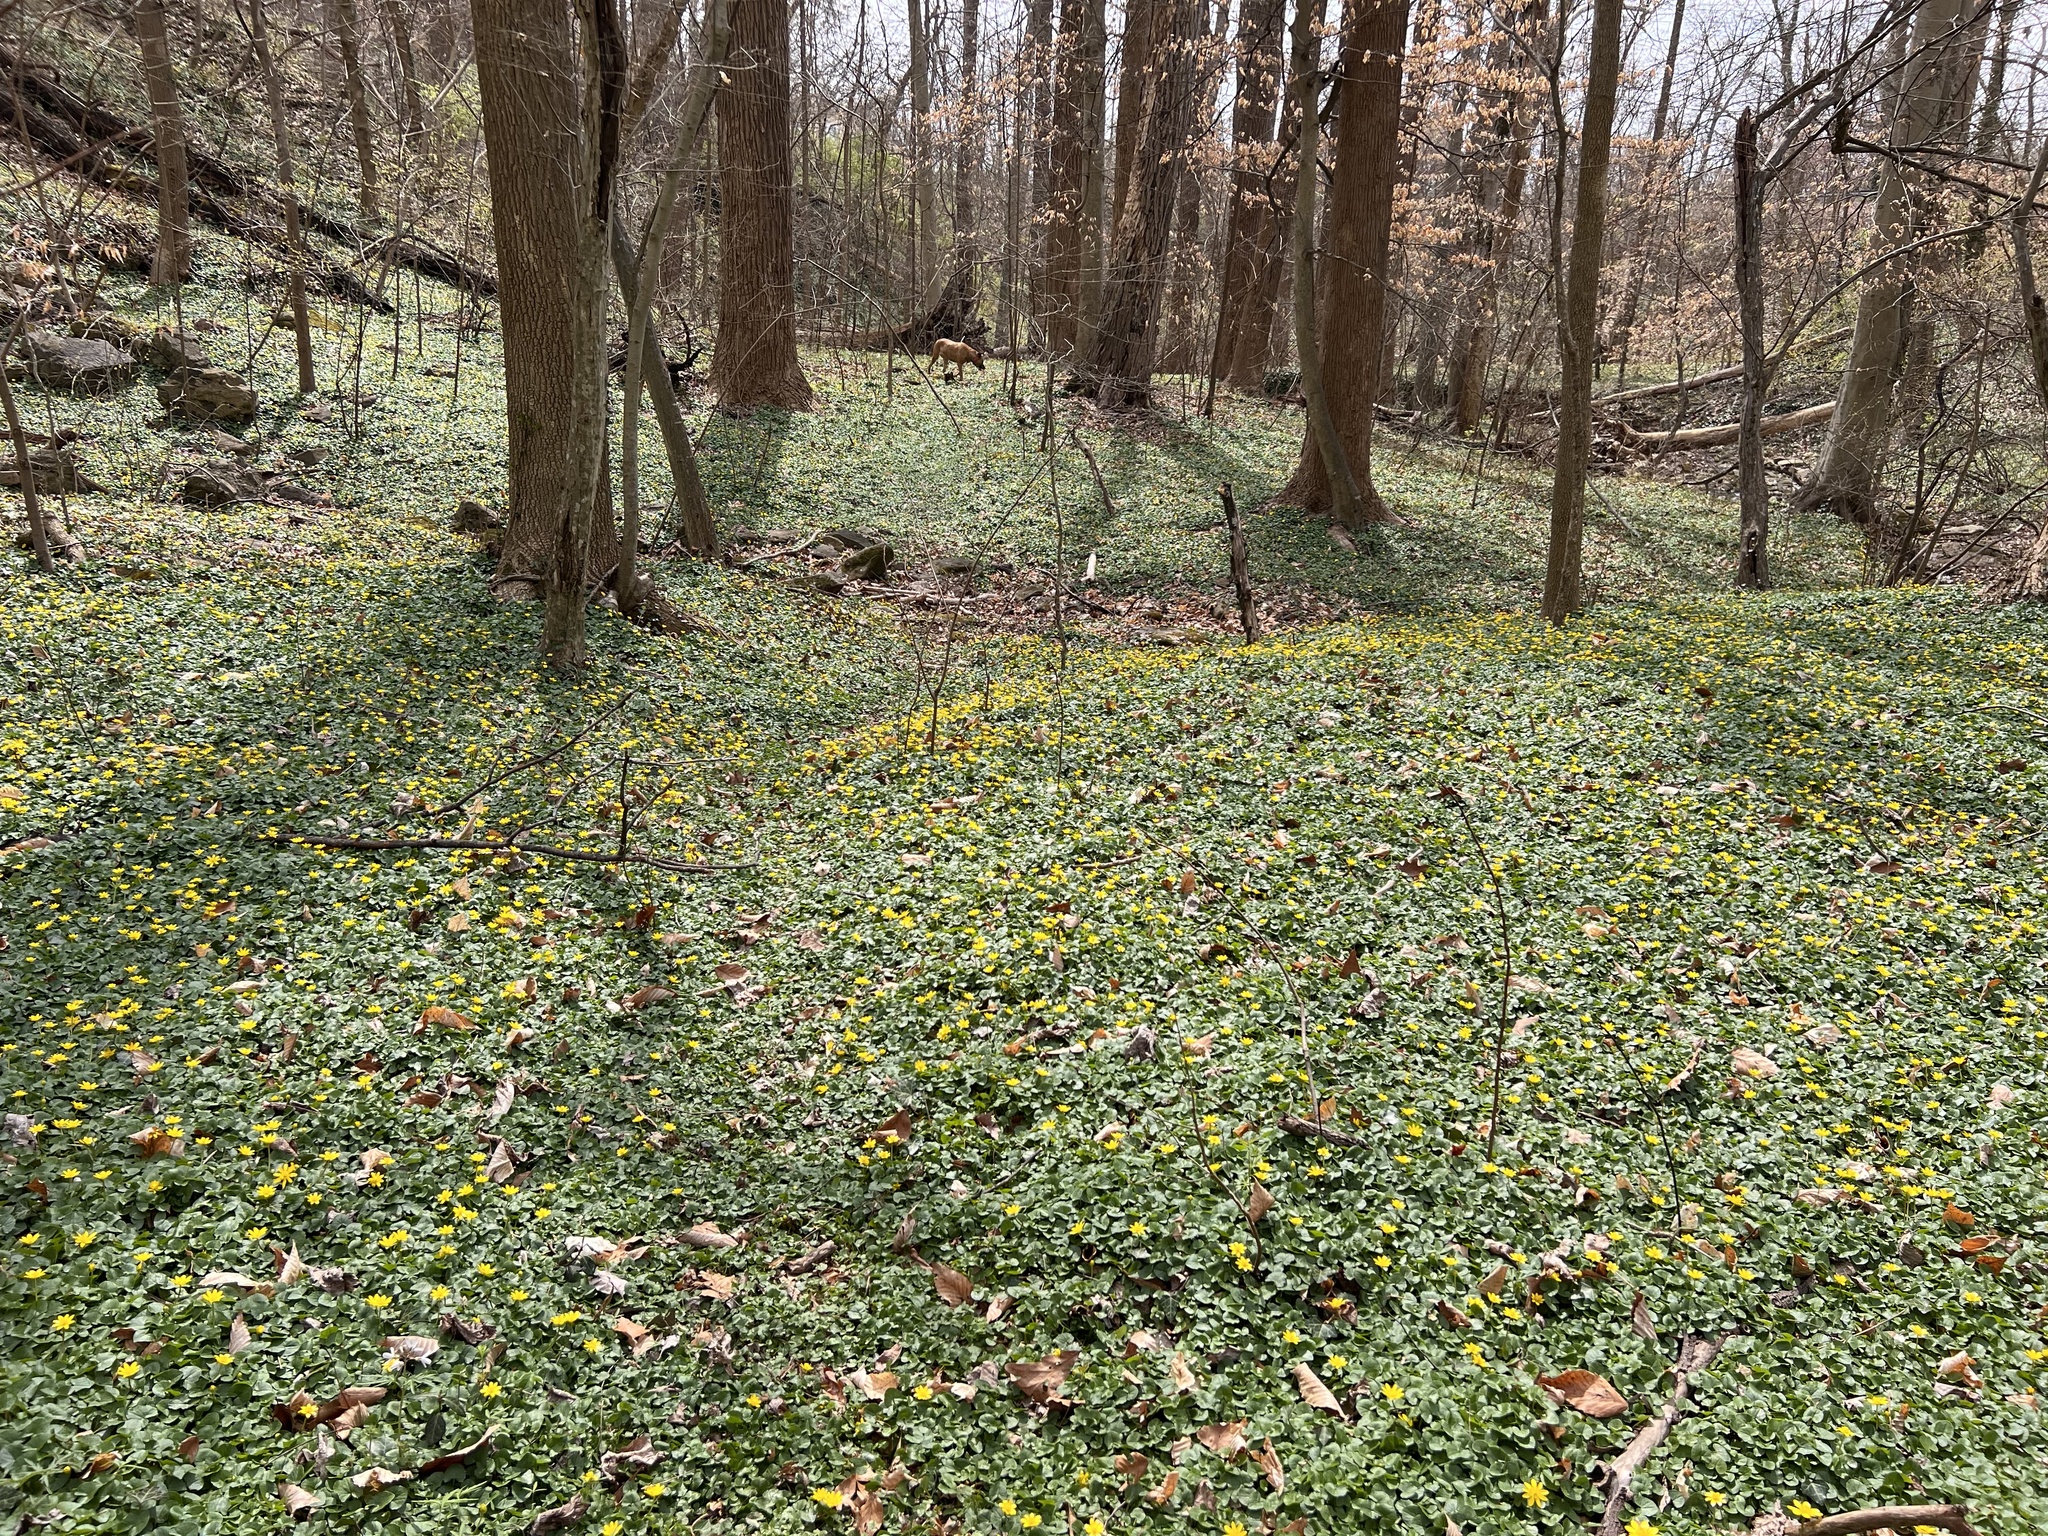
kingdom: Plantae
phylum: Tracheophyta
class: Magnoliopsida
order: Ranunculales
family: Ranunculaceae
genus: Ficaria
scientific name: Ficaria verna
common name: Lesser celandine
